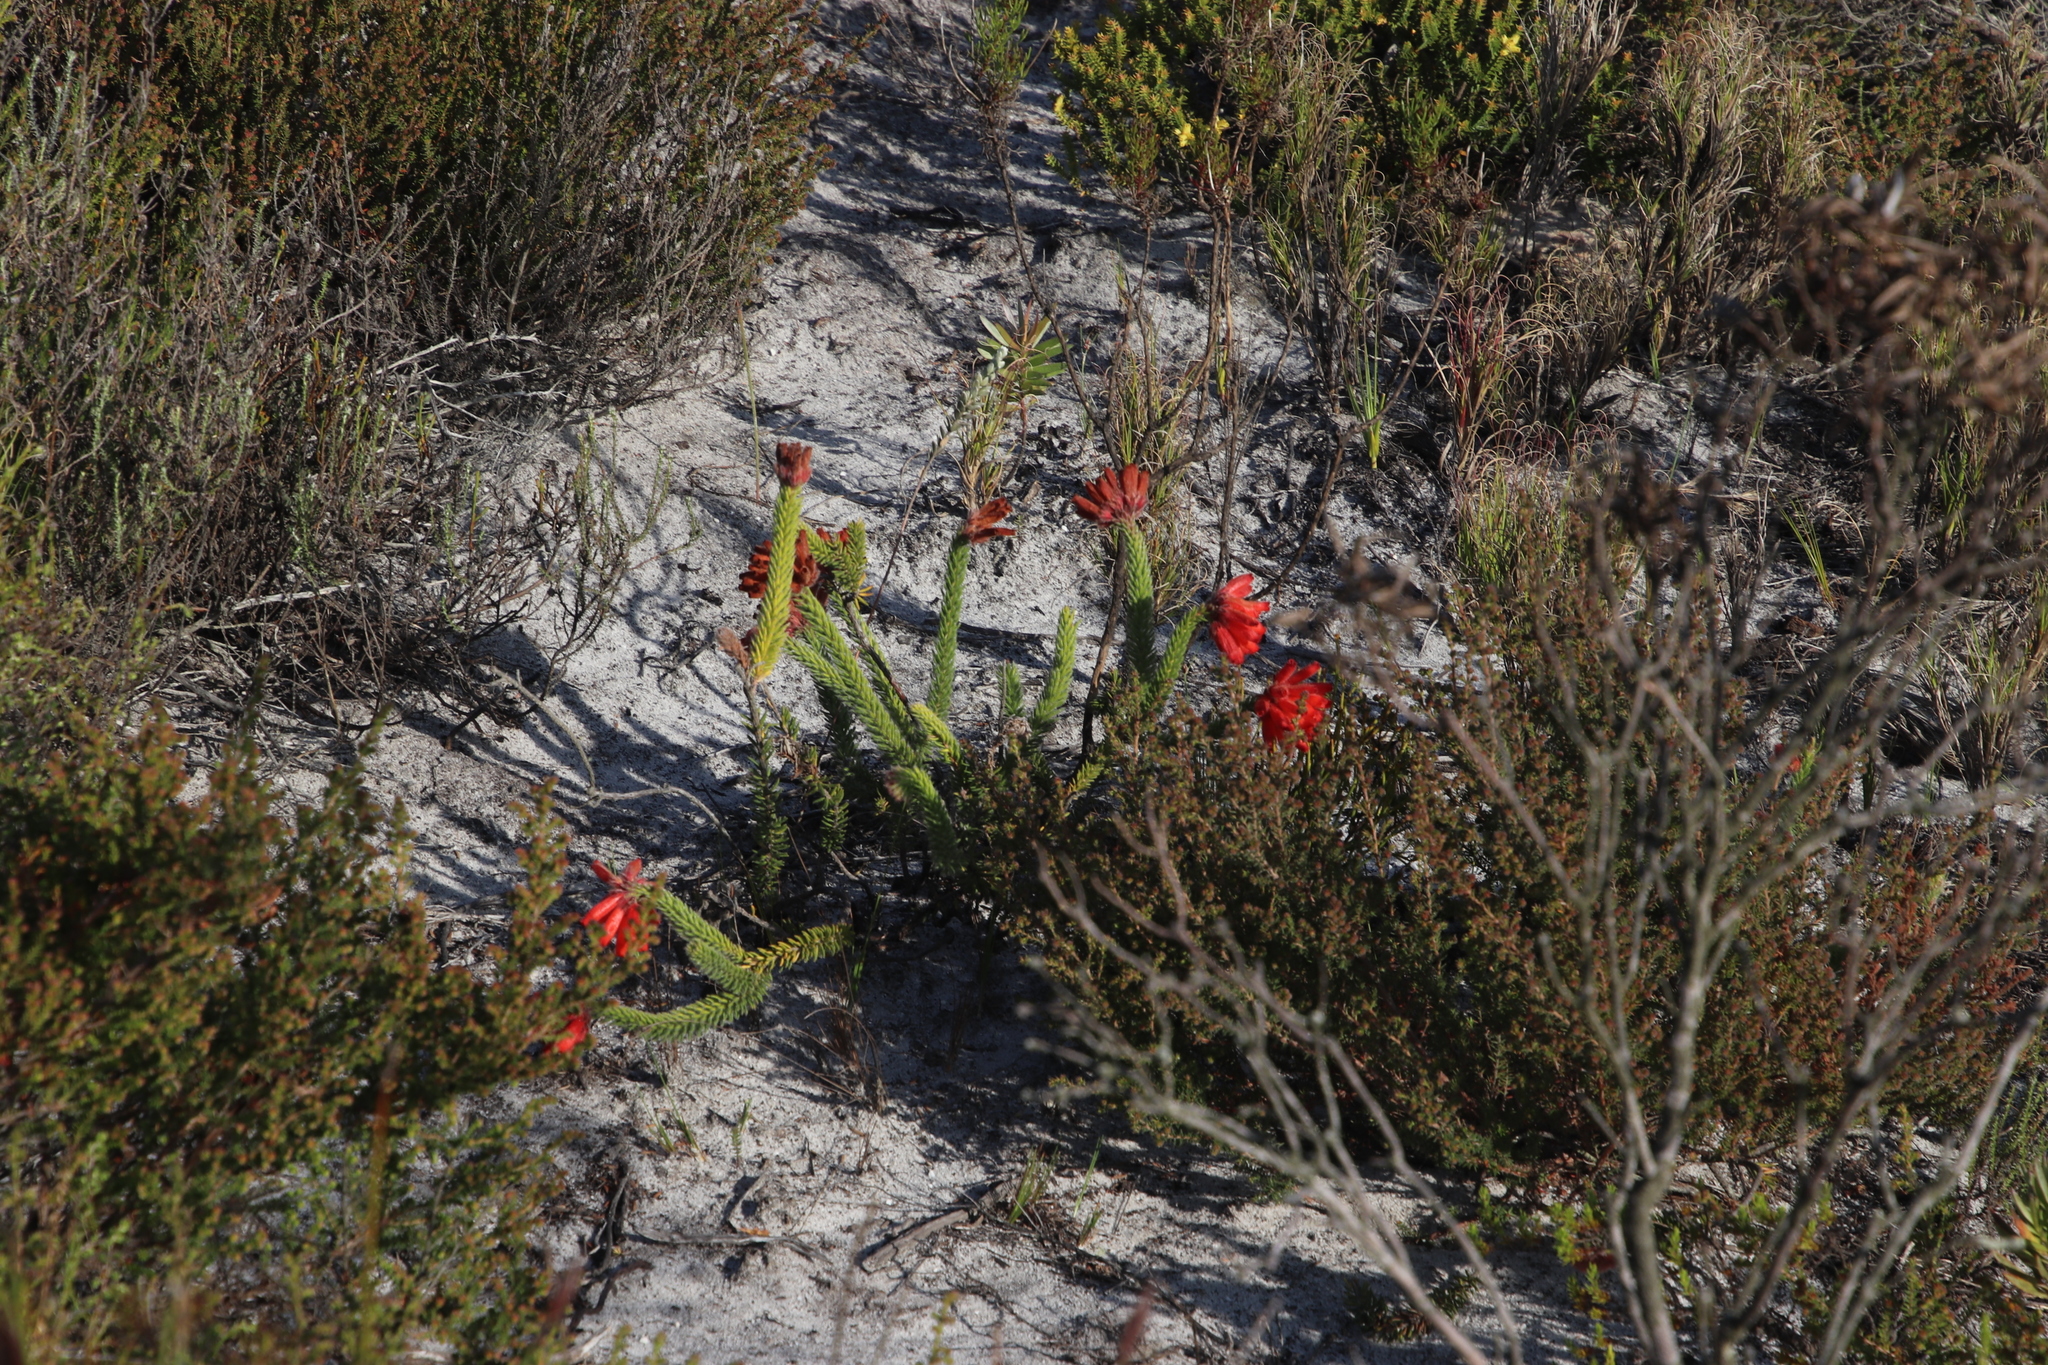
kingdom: Plantae
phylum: Tracheophyta
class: Magnoliopsida
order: Ericales
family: Ericaceae
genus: Erica
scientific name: Erica cerinthoides
